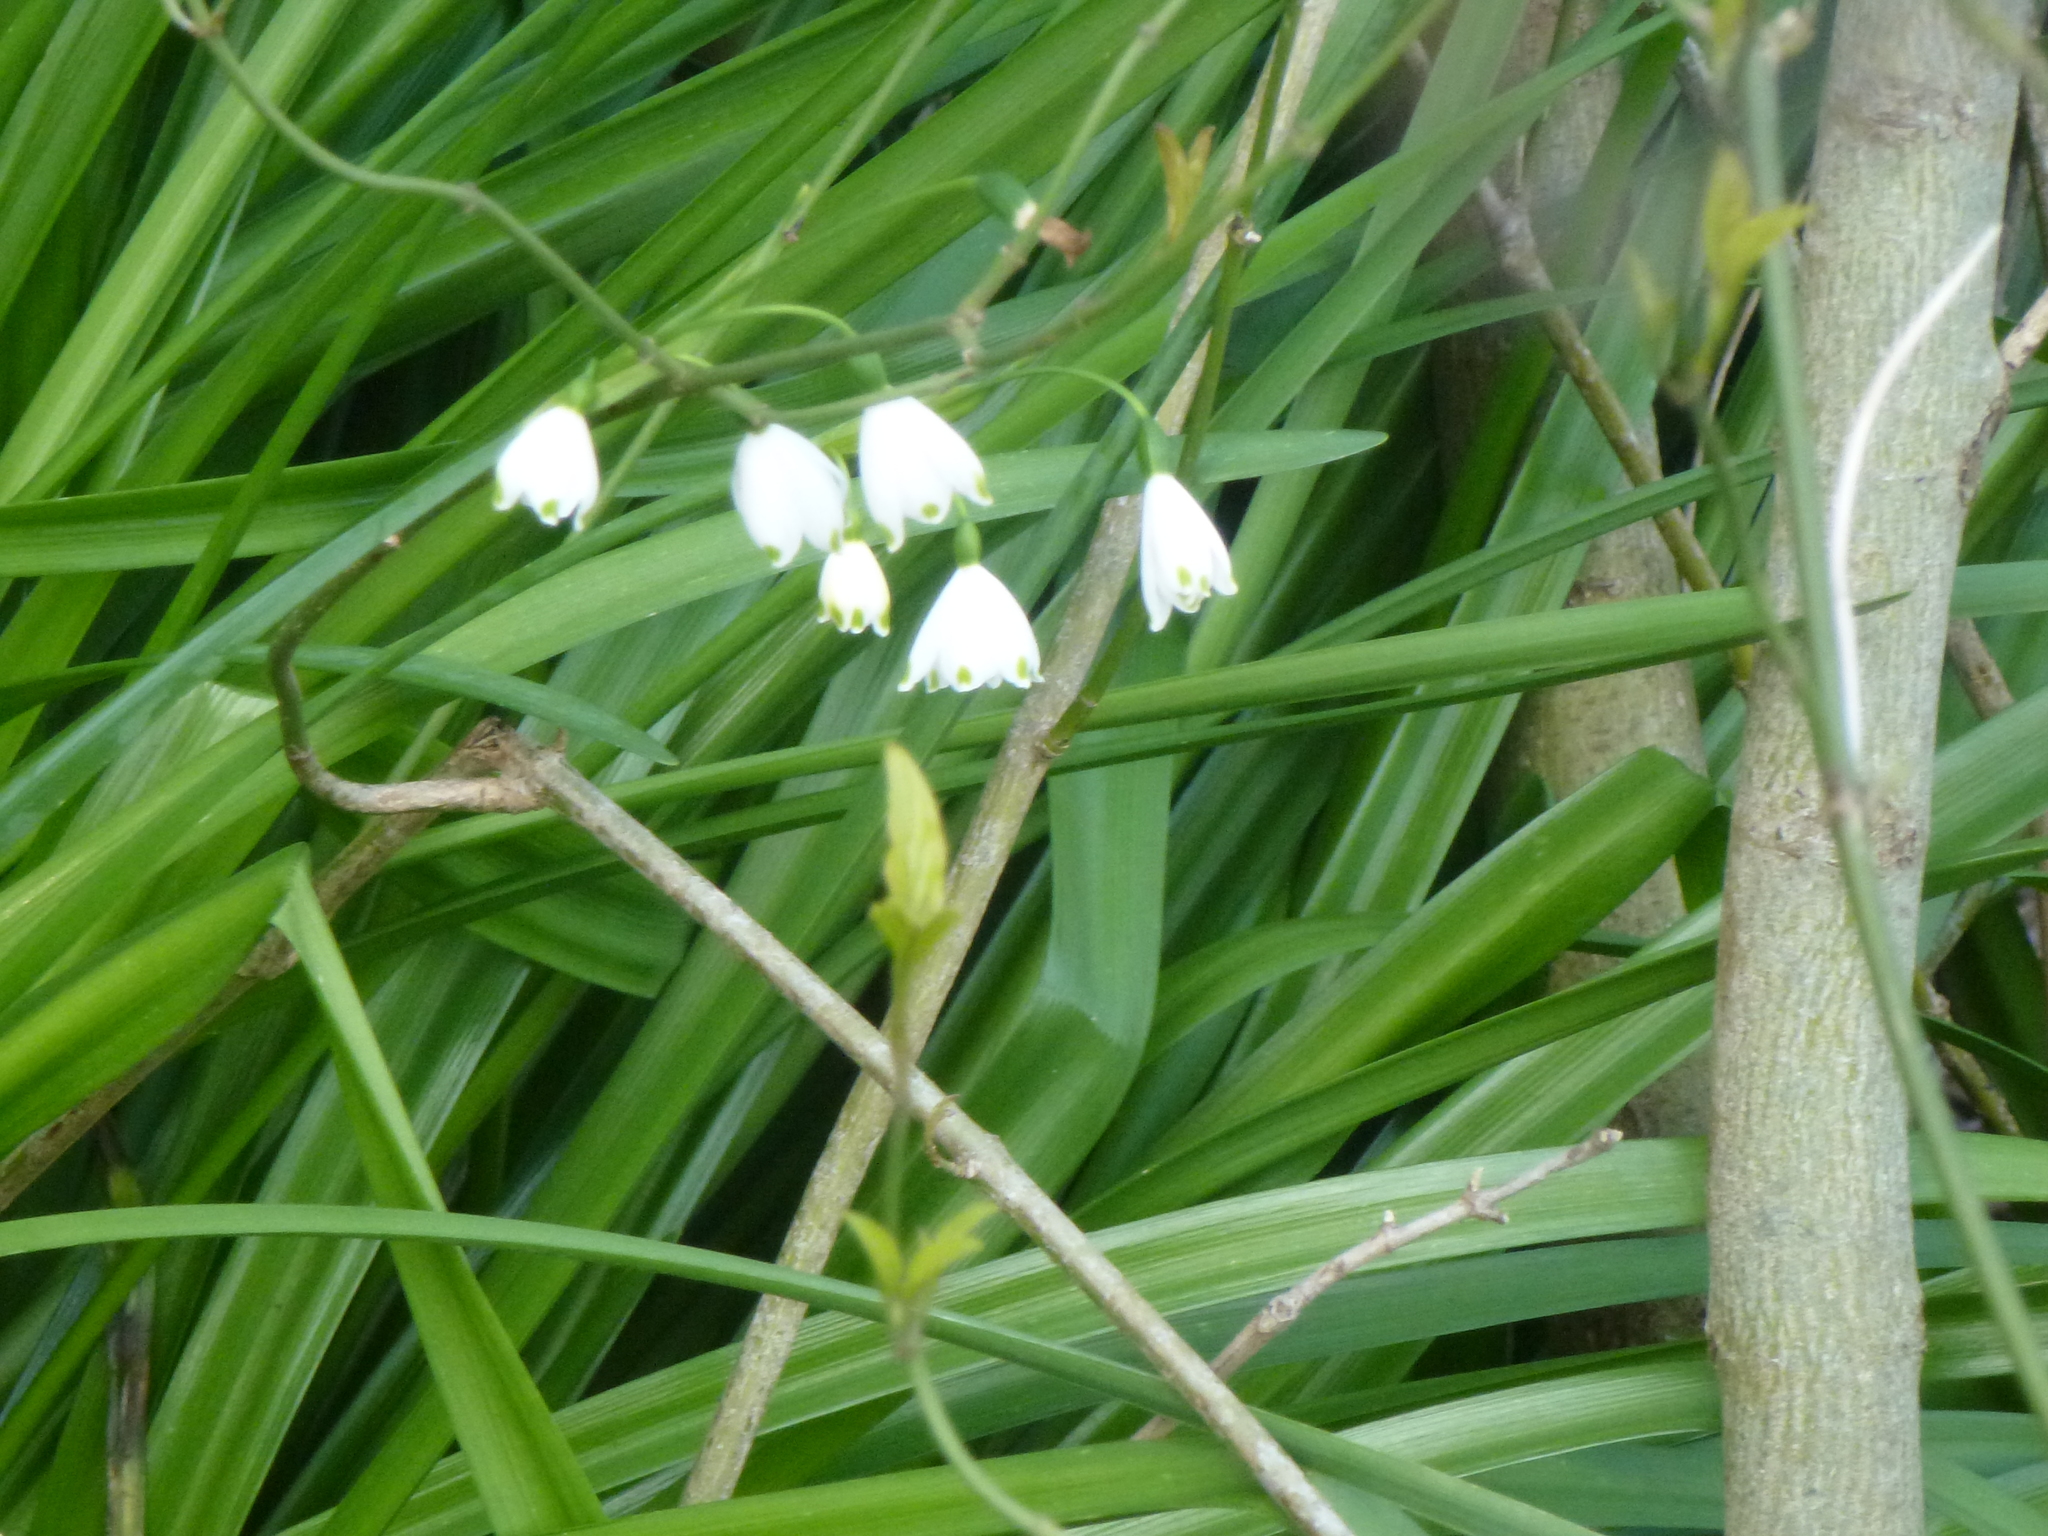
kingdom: Plantae
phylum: Tracheophyta
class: Liliopsida
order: Asparagales
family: Amaryllidaceae
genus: Leucojum
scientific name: Leucojum aestivum
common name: Summer snowflake
